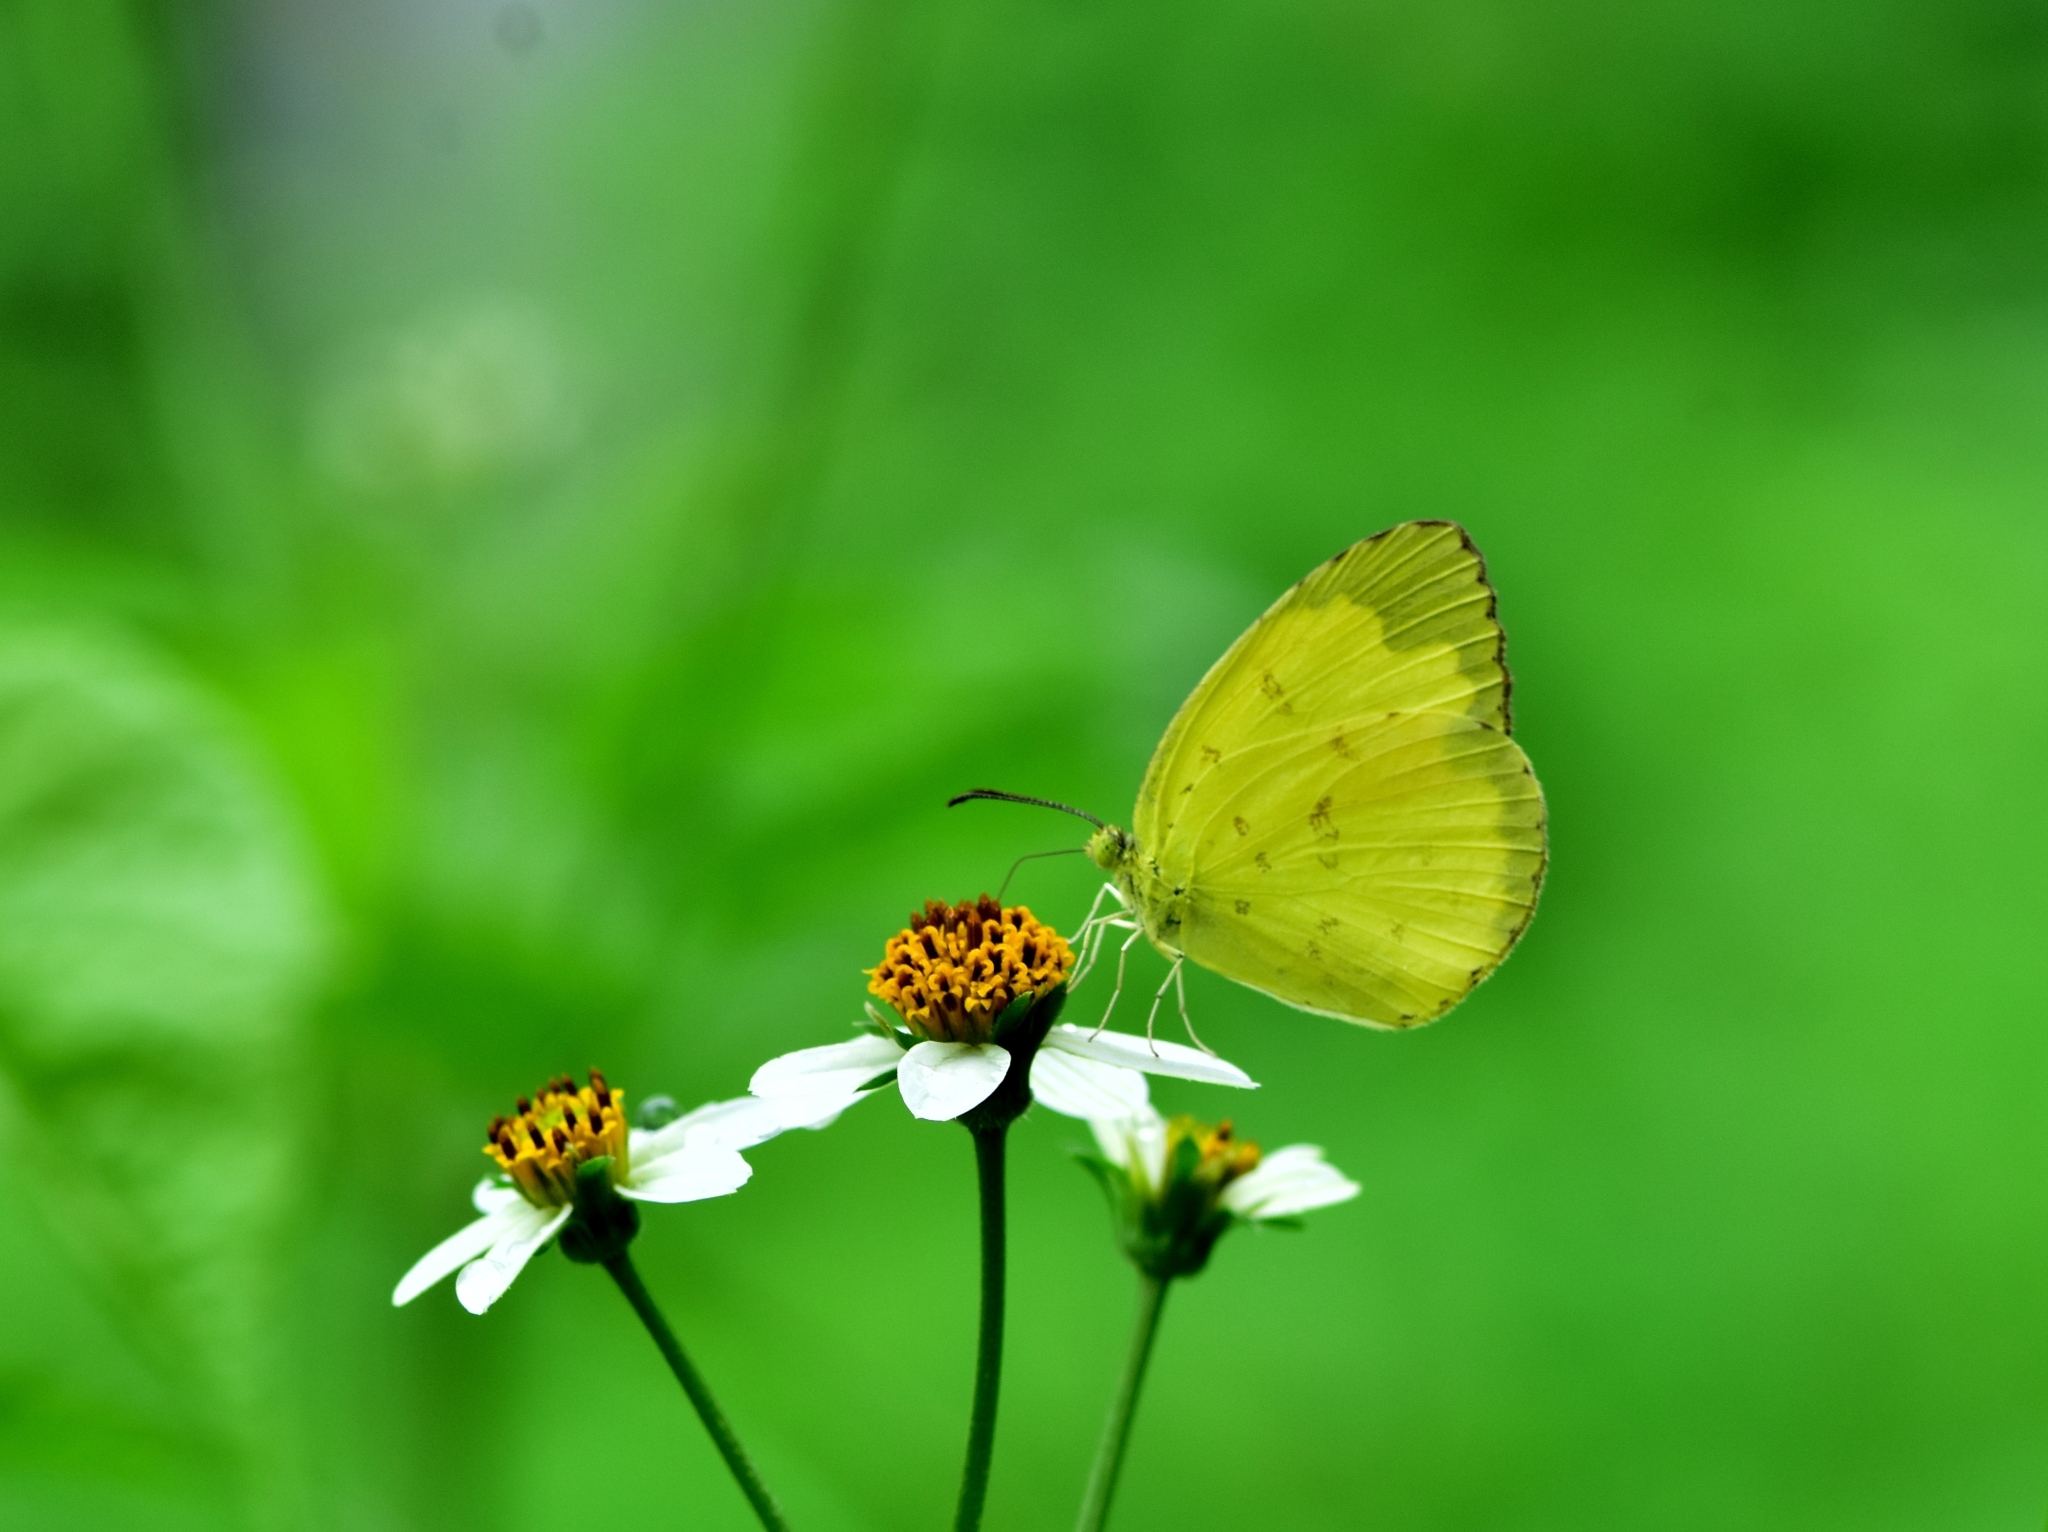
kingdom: Animalia
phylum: Arthropoda
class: Insecta
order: Lepidoptera
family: Pieridae
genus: Eurema
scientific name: Eurema blanda
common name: Three-spot grass yellow
